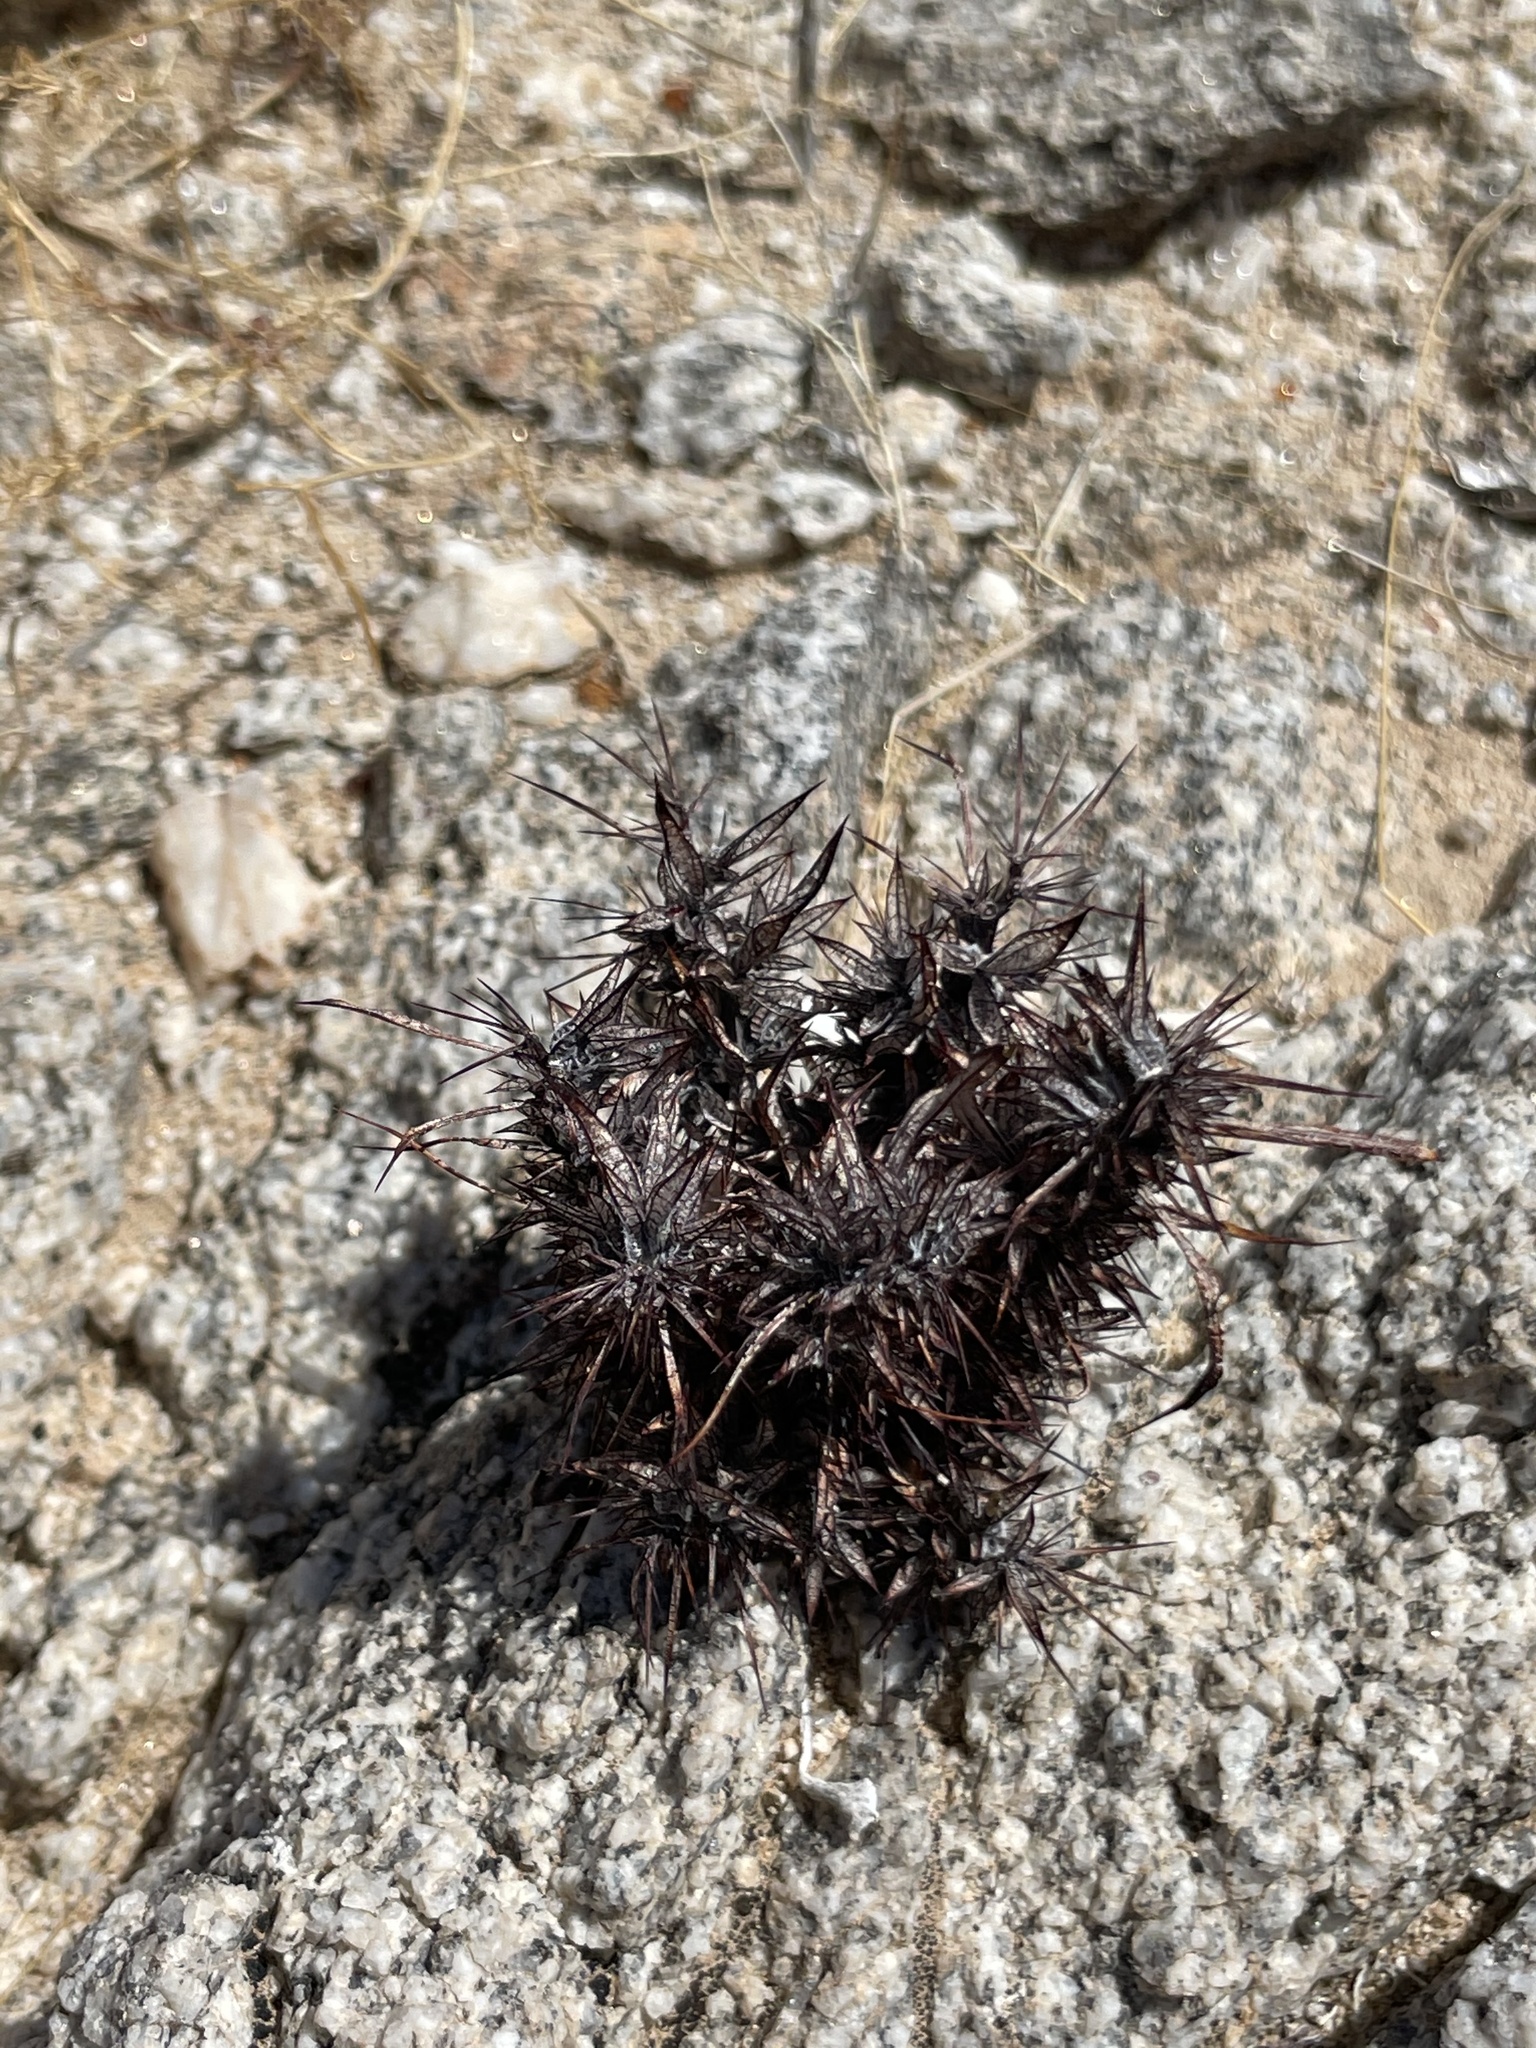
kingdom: Plantae
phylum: Tracheophyta
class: Magnoliopsida
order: Caryophyllales
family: Polygonaceae
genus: Chorizanthe
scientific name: Chorizanthe rigida
